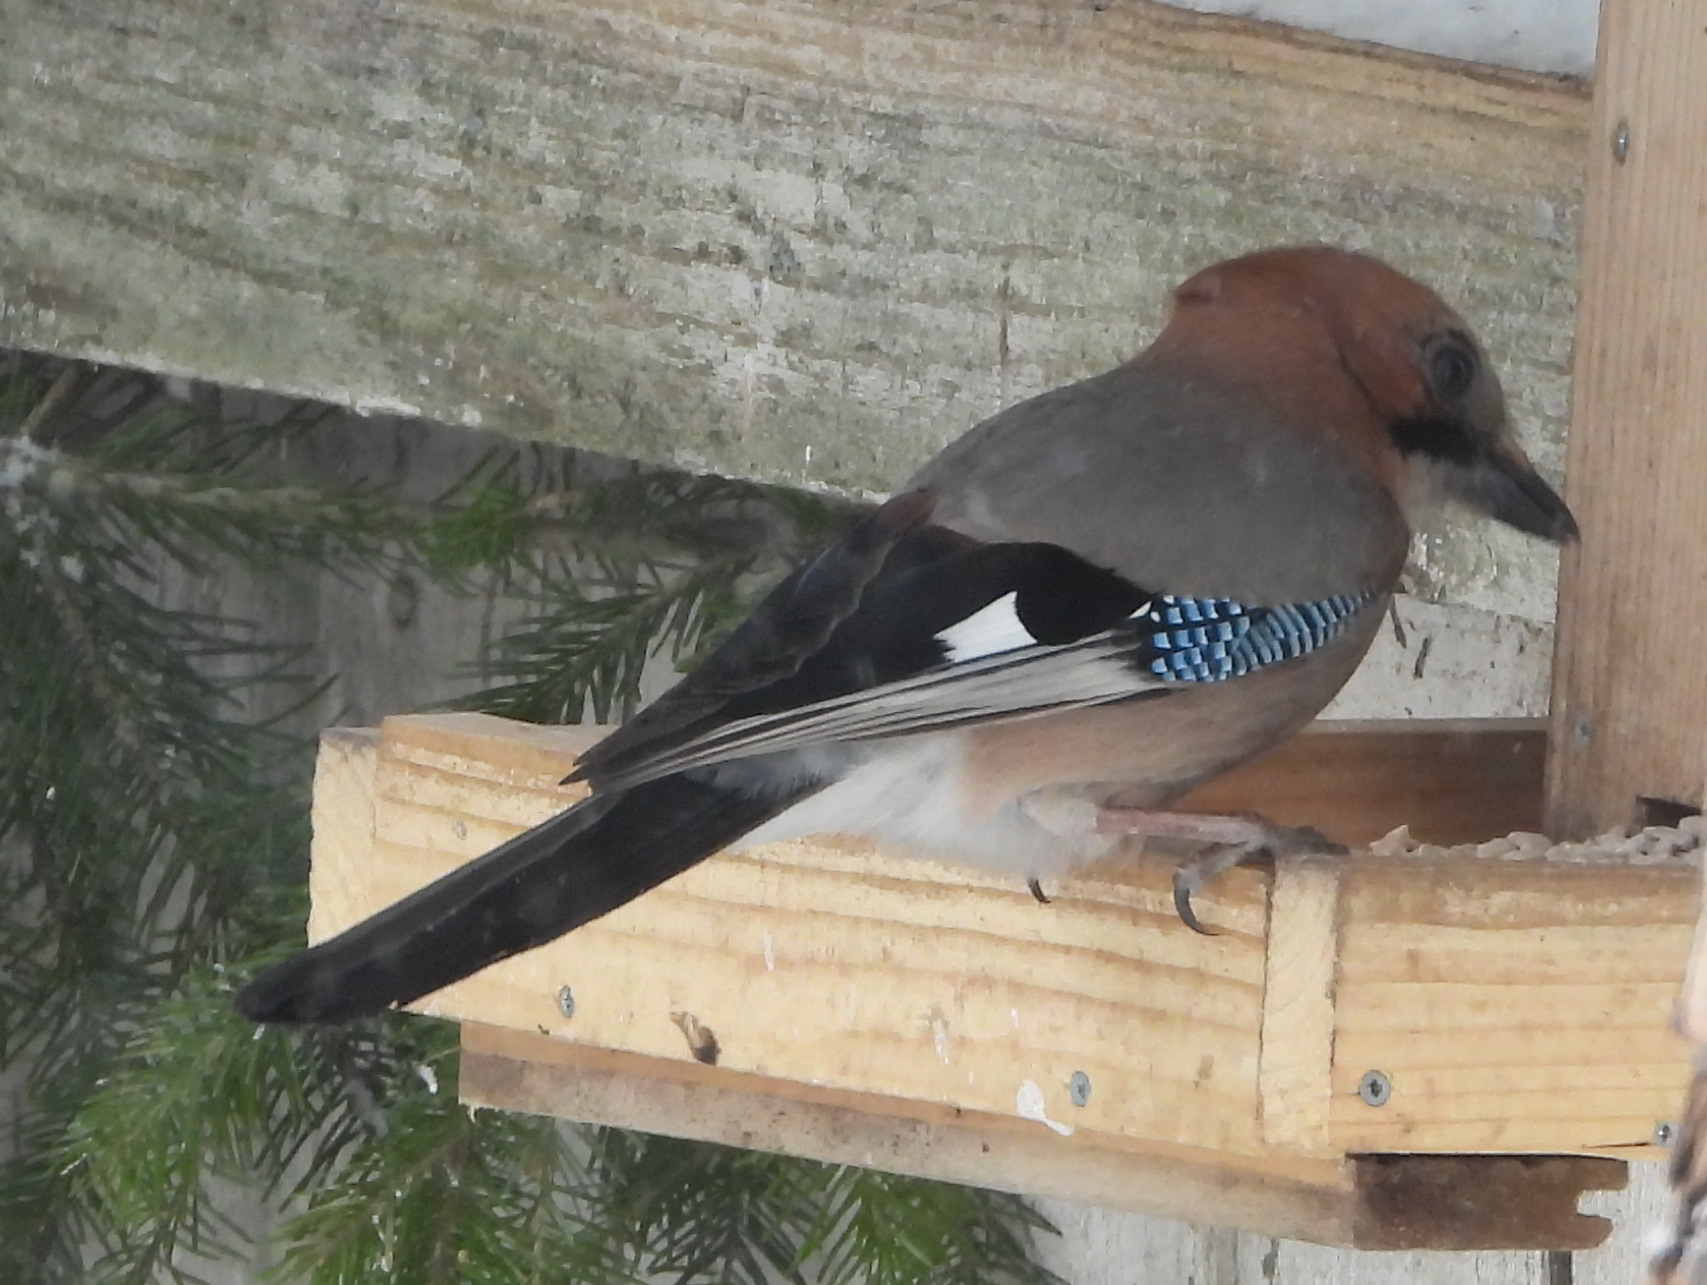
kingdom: Animalia
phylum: Chordata
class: Aves
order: Passeriformes
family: Corvidae
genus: Garrulus
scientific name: Garrulus glandarius
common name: Eurasian jay
